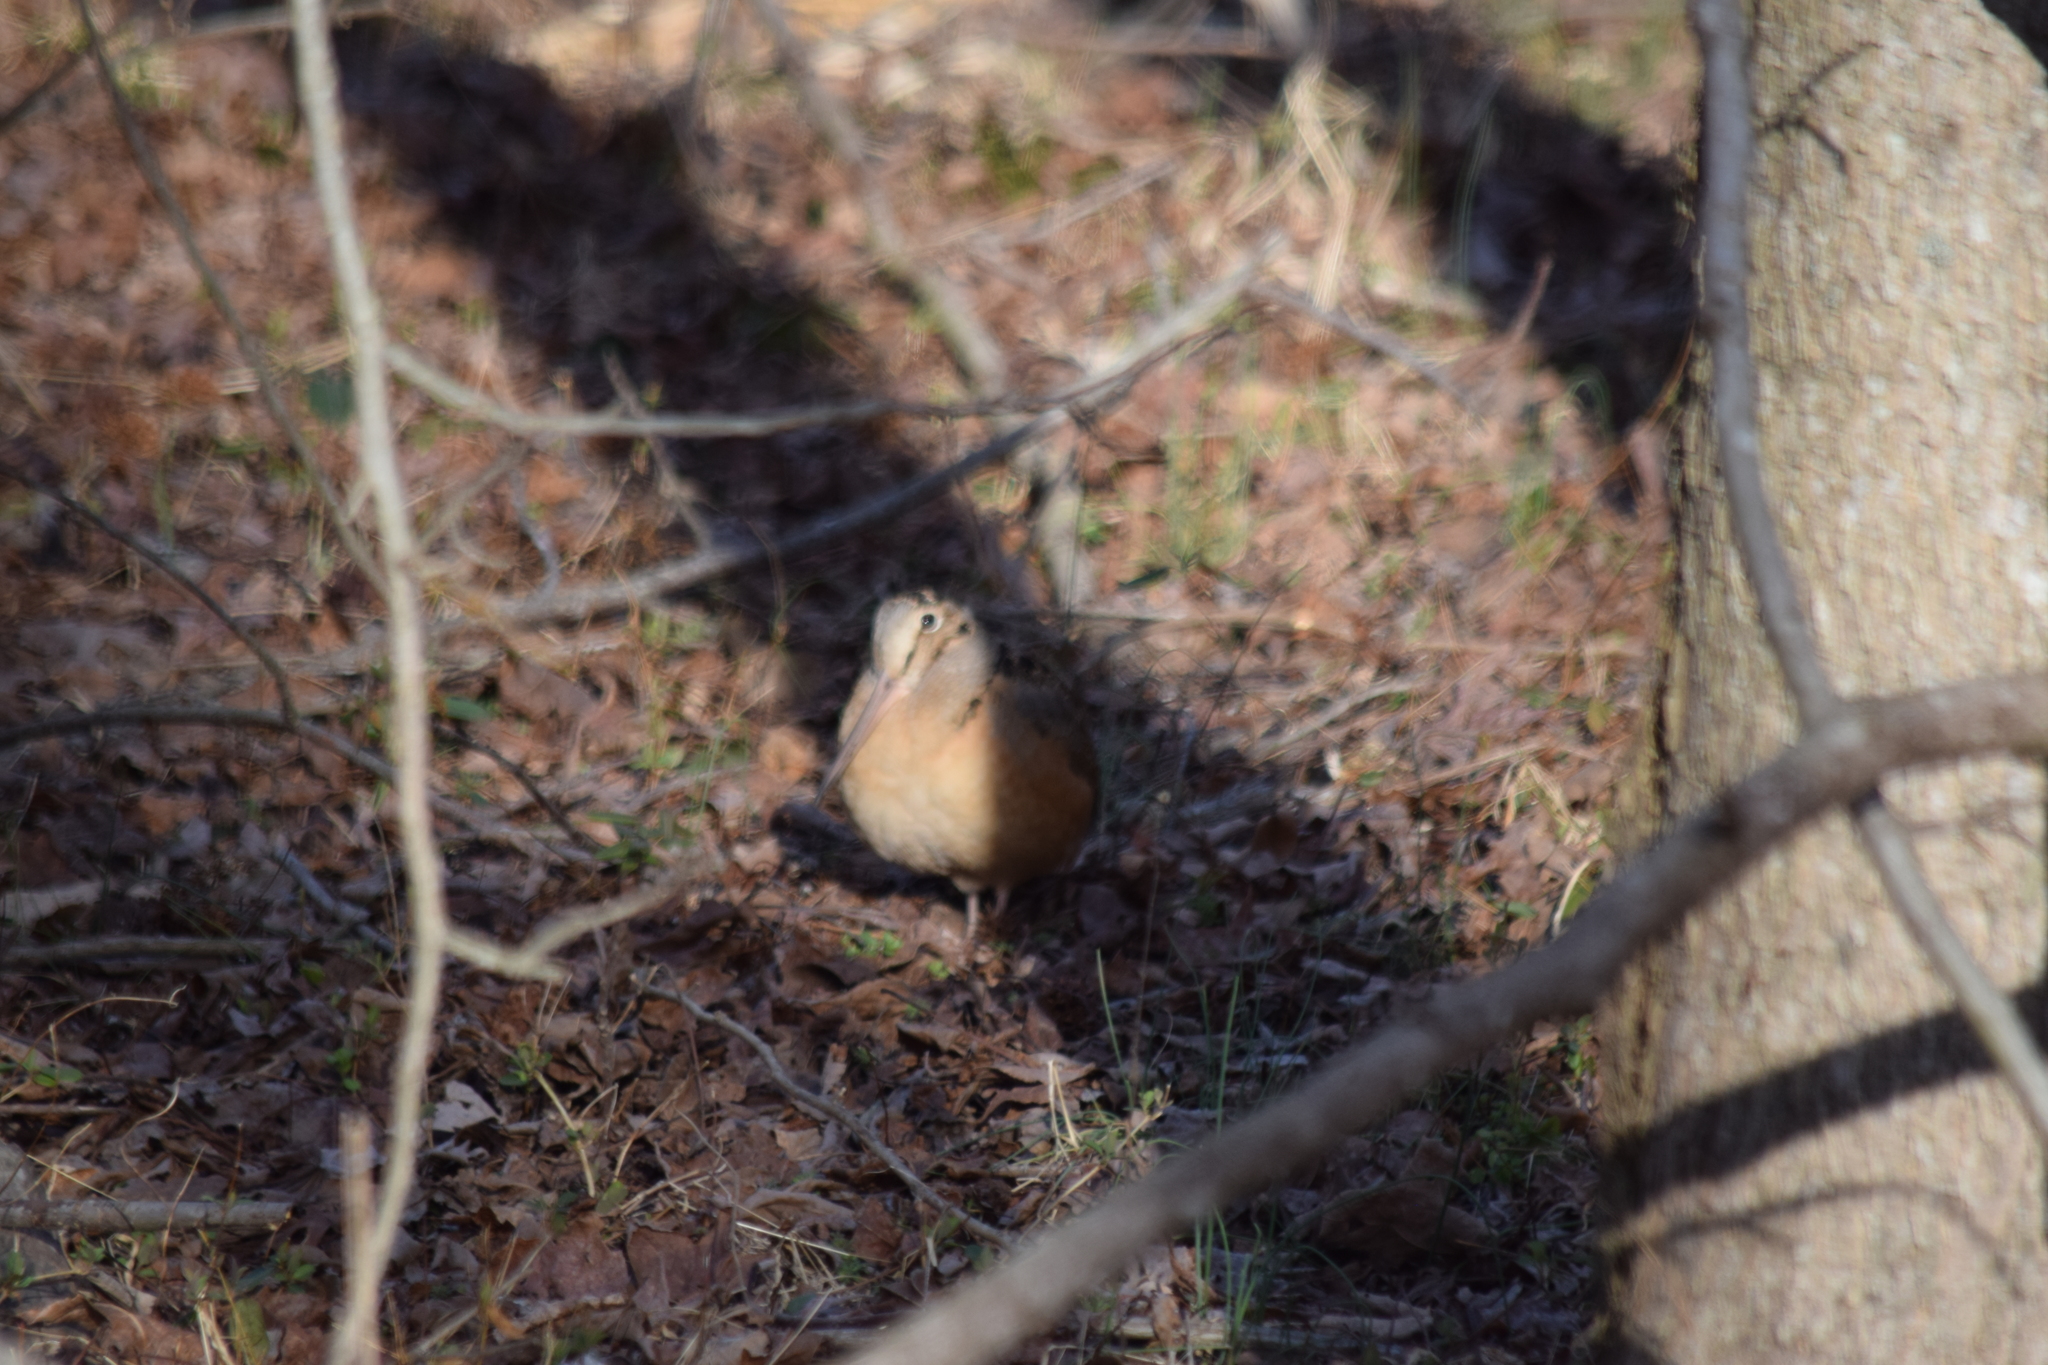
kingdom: Animalia
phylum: Chordata
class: Aves
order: Charadriiformes
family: Scolopacidae
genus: Scolopax
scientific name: Scolopax minor
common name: American woodcock
